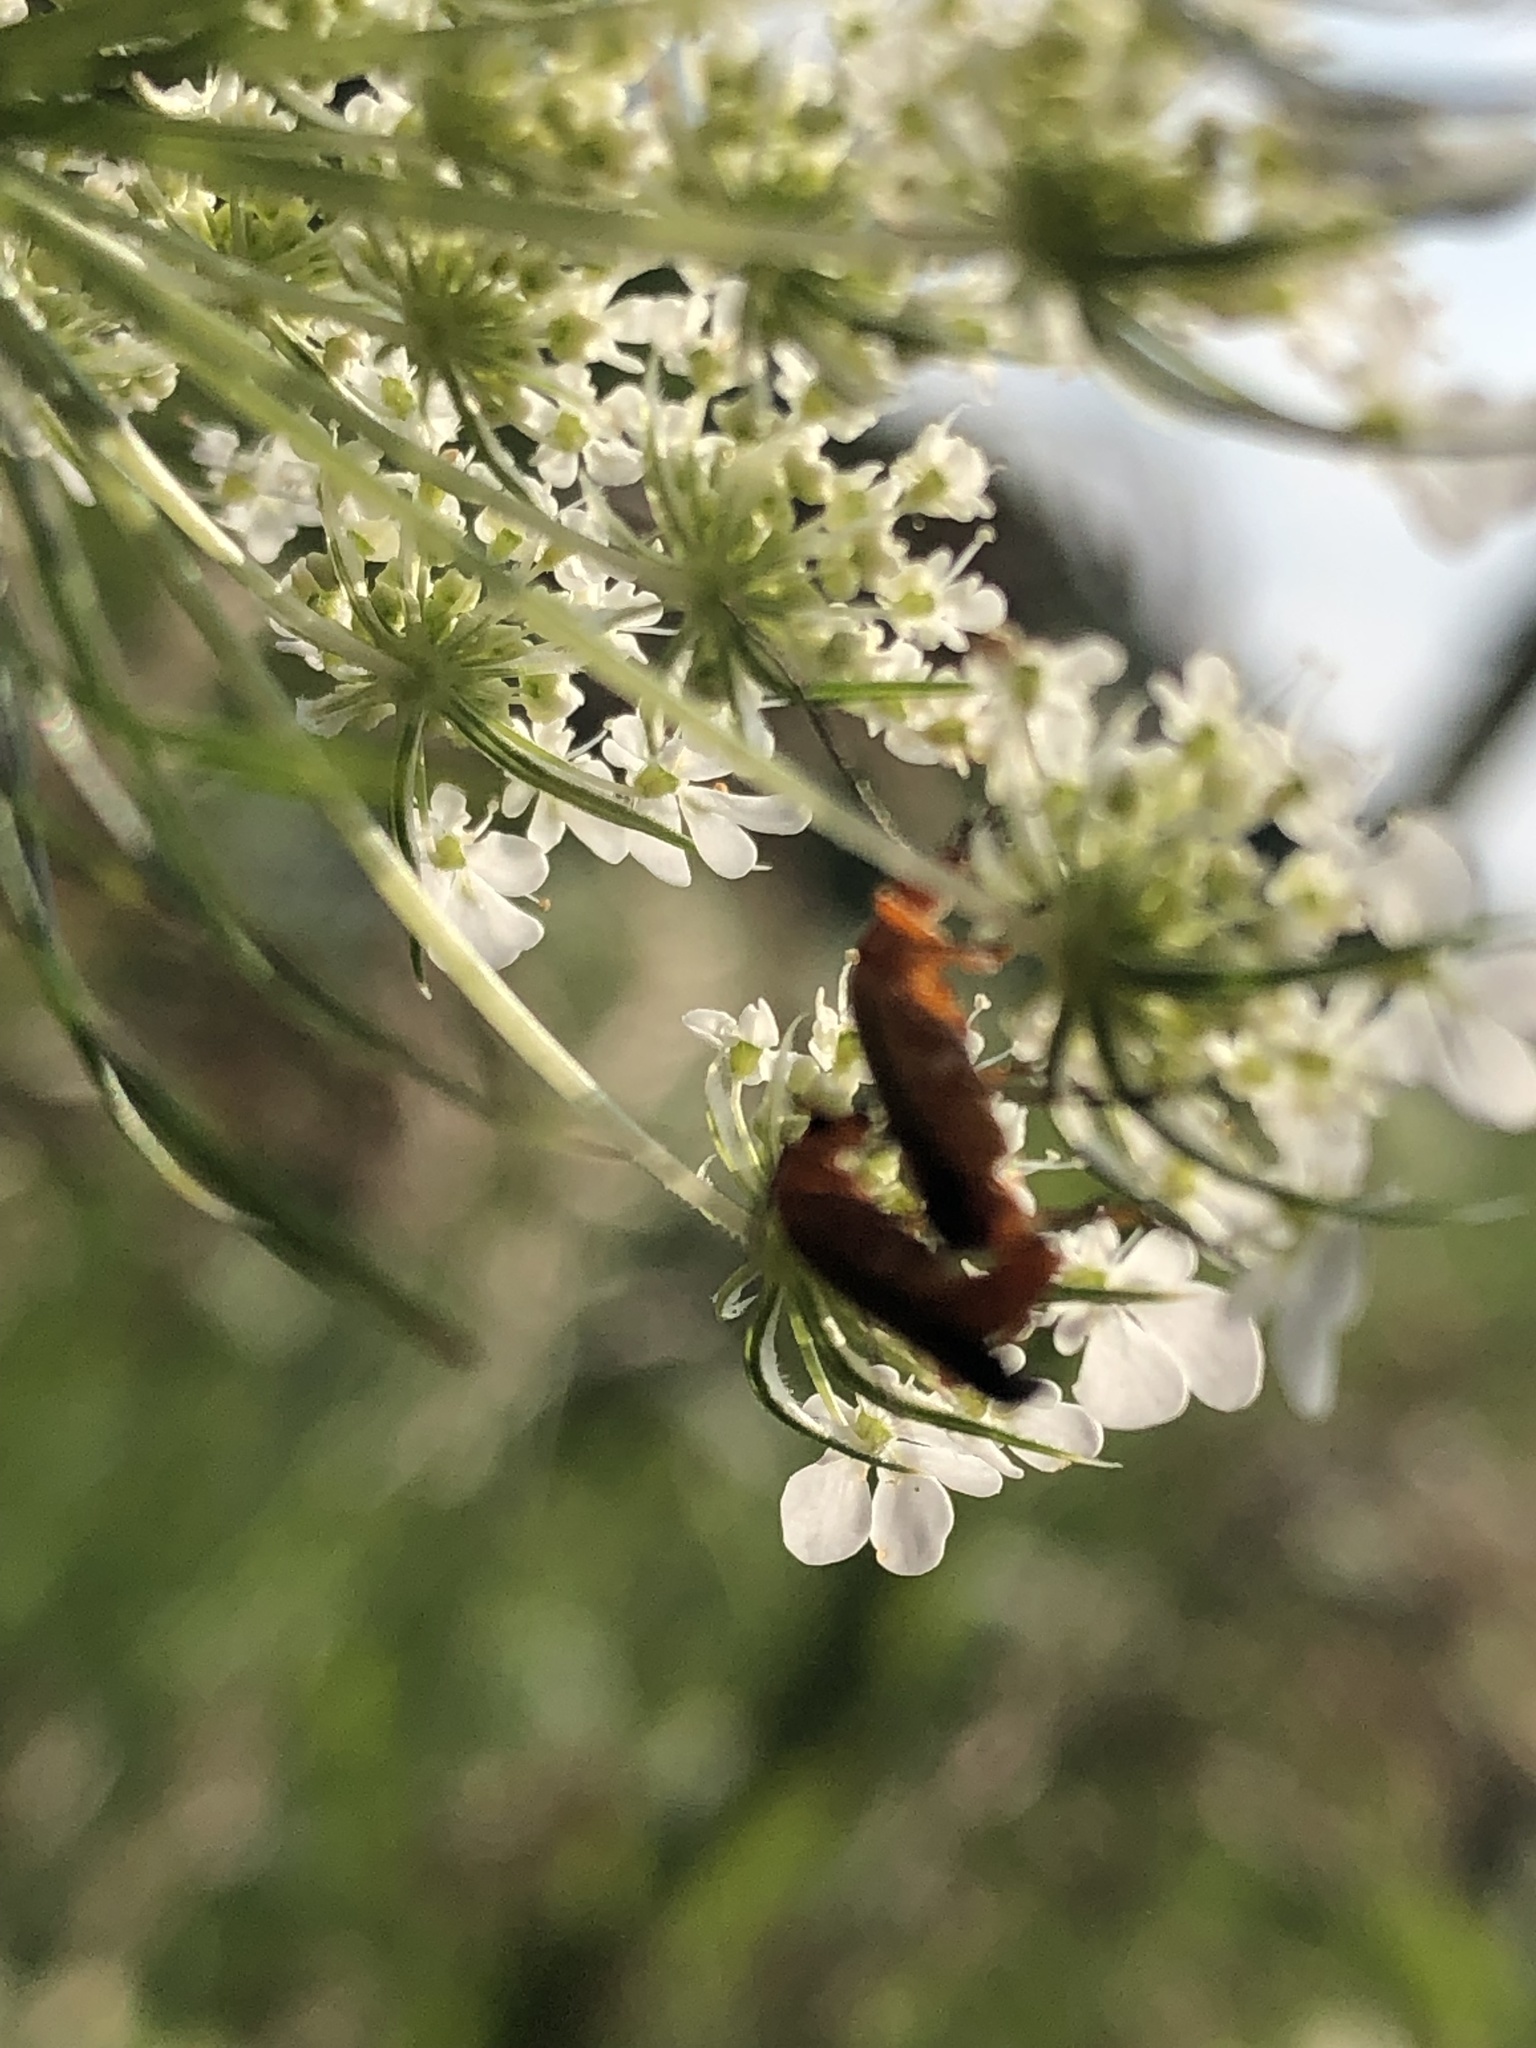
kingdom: Animalia
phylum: Arthropoda
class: Insecta
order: Coleoptera
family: Cantharidae
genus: Rhagonycha
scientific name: Rhagonycha fulva
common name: Common red soldier beetle
